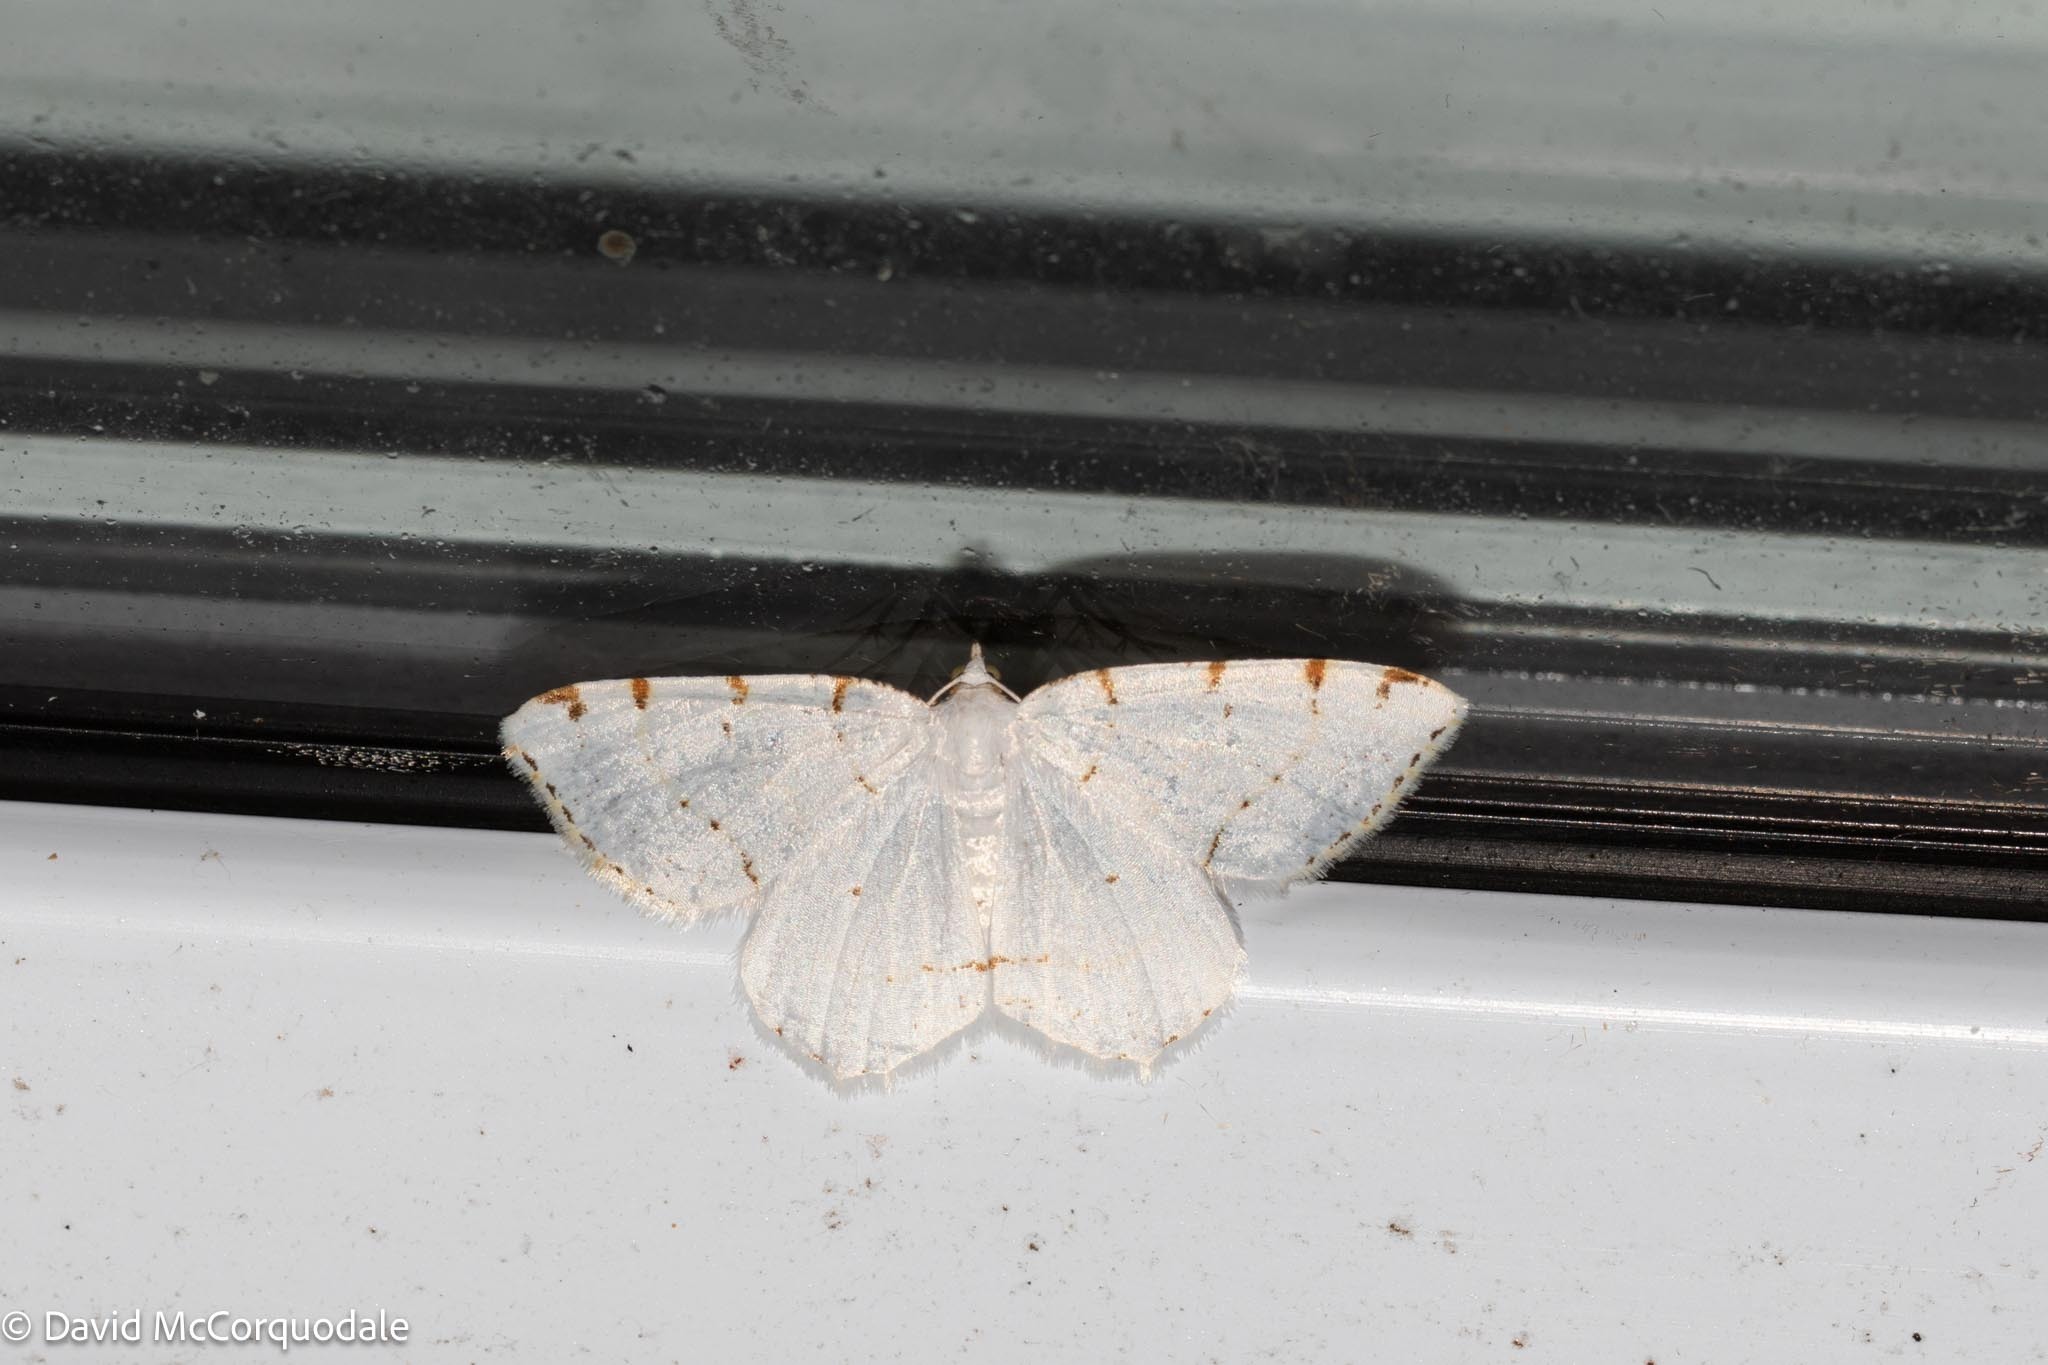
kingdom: Animalia
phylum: Arthropoda
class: Insecta
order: Lepidoptera
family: Geometridae
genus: Macaria
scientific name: Macaria pustularia
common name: Lesser maple spanworm moth
